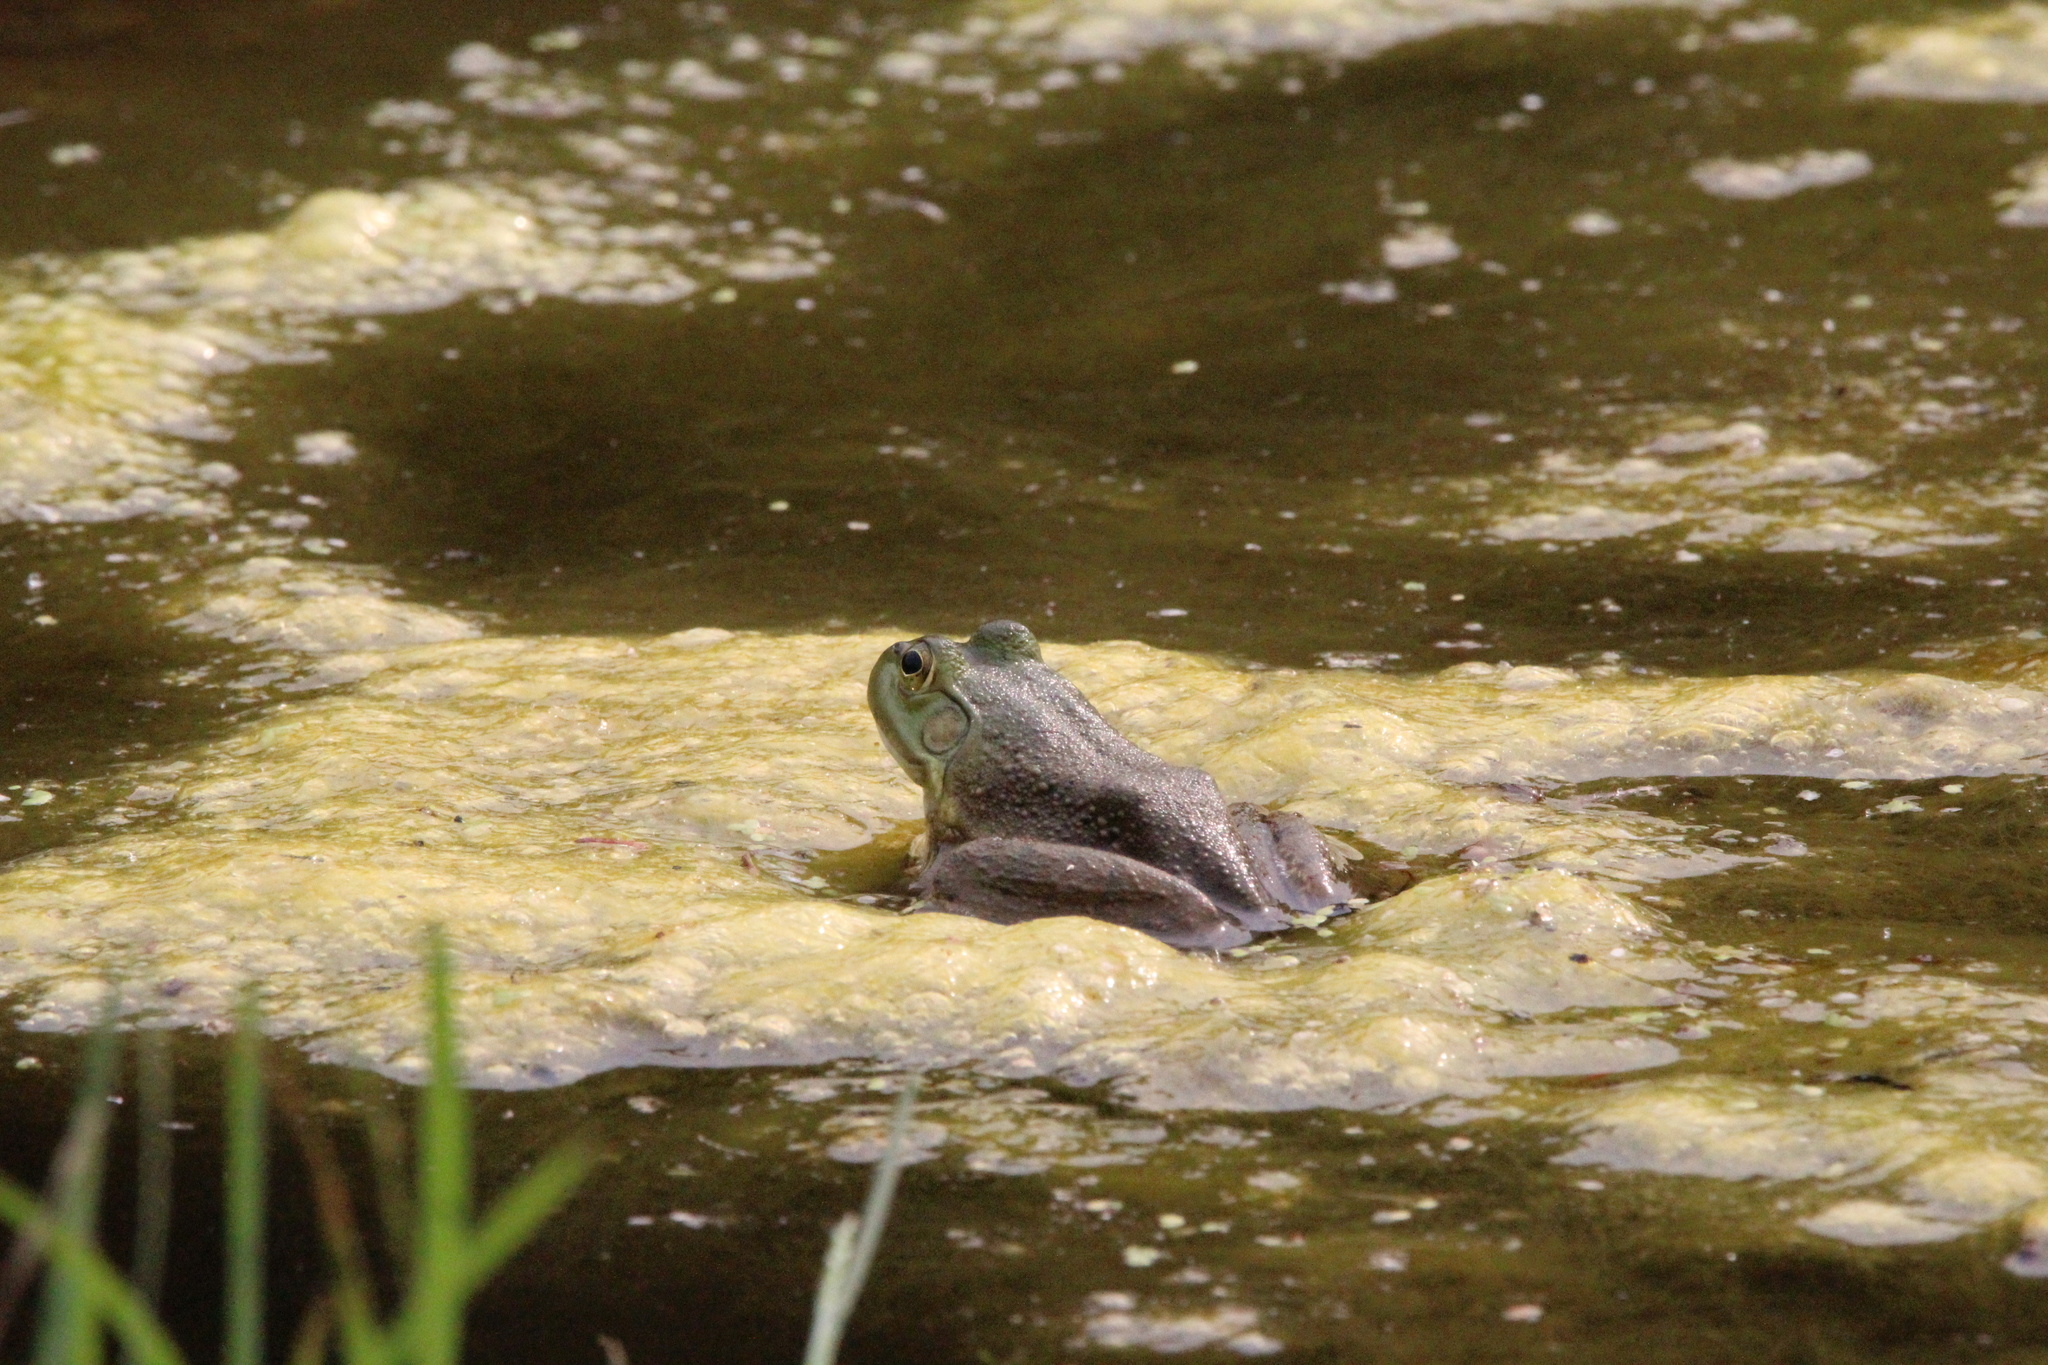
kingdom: Animalia
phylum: Chordata
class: Amphibia
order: Anura
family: Ranidae
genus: Lithobates
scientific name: Lithobates catesbeianus
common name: American bullfrog
